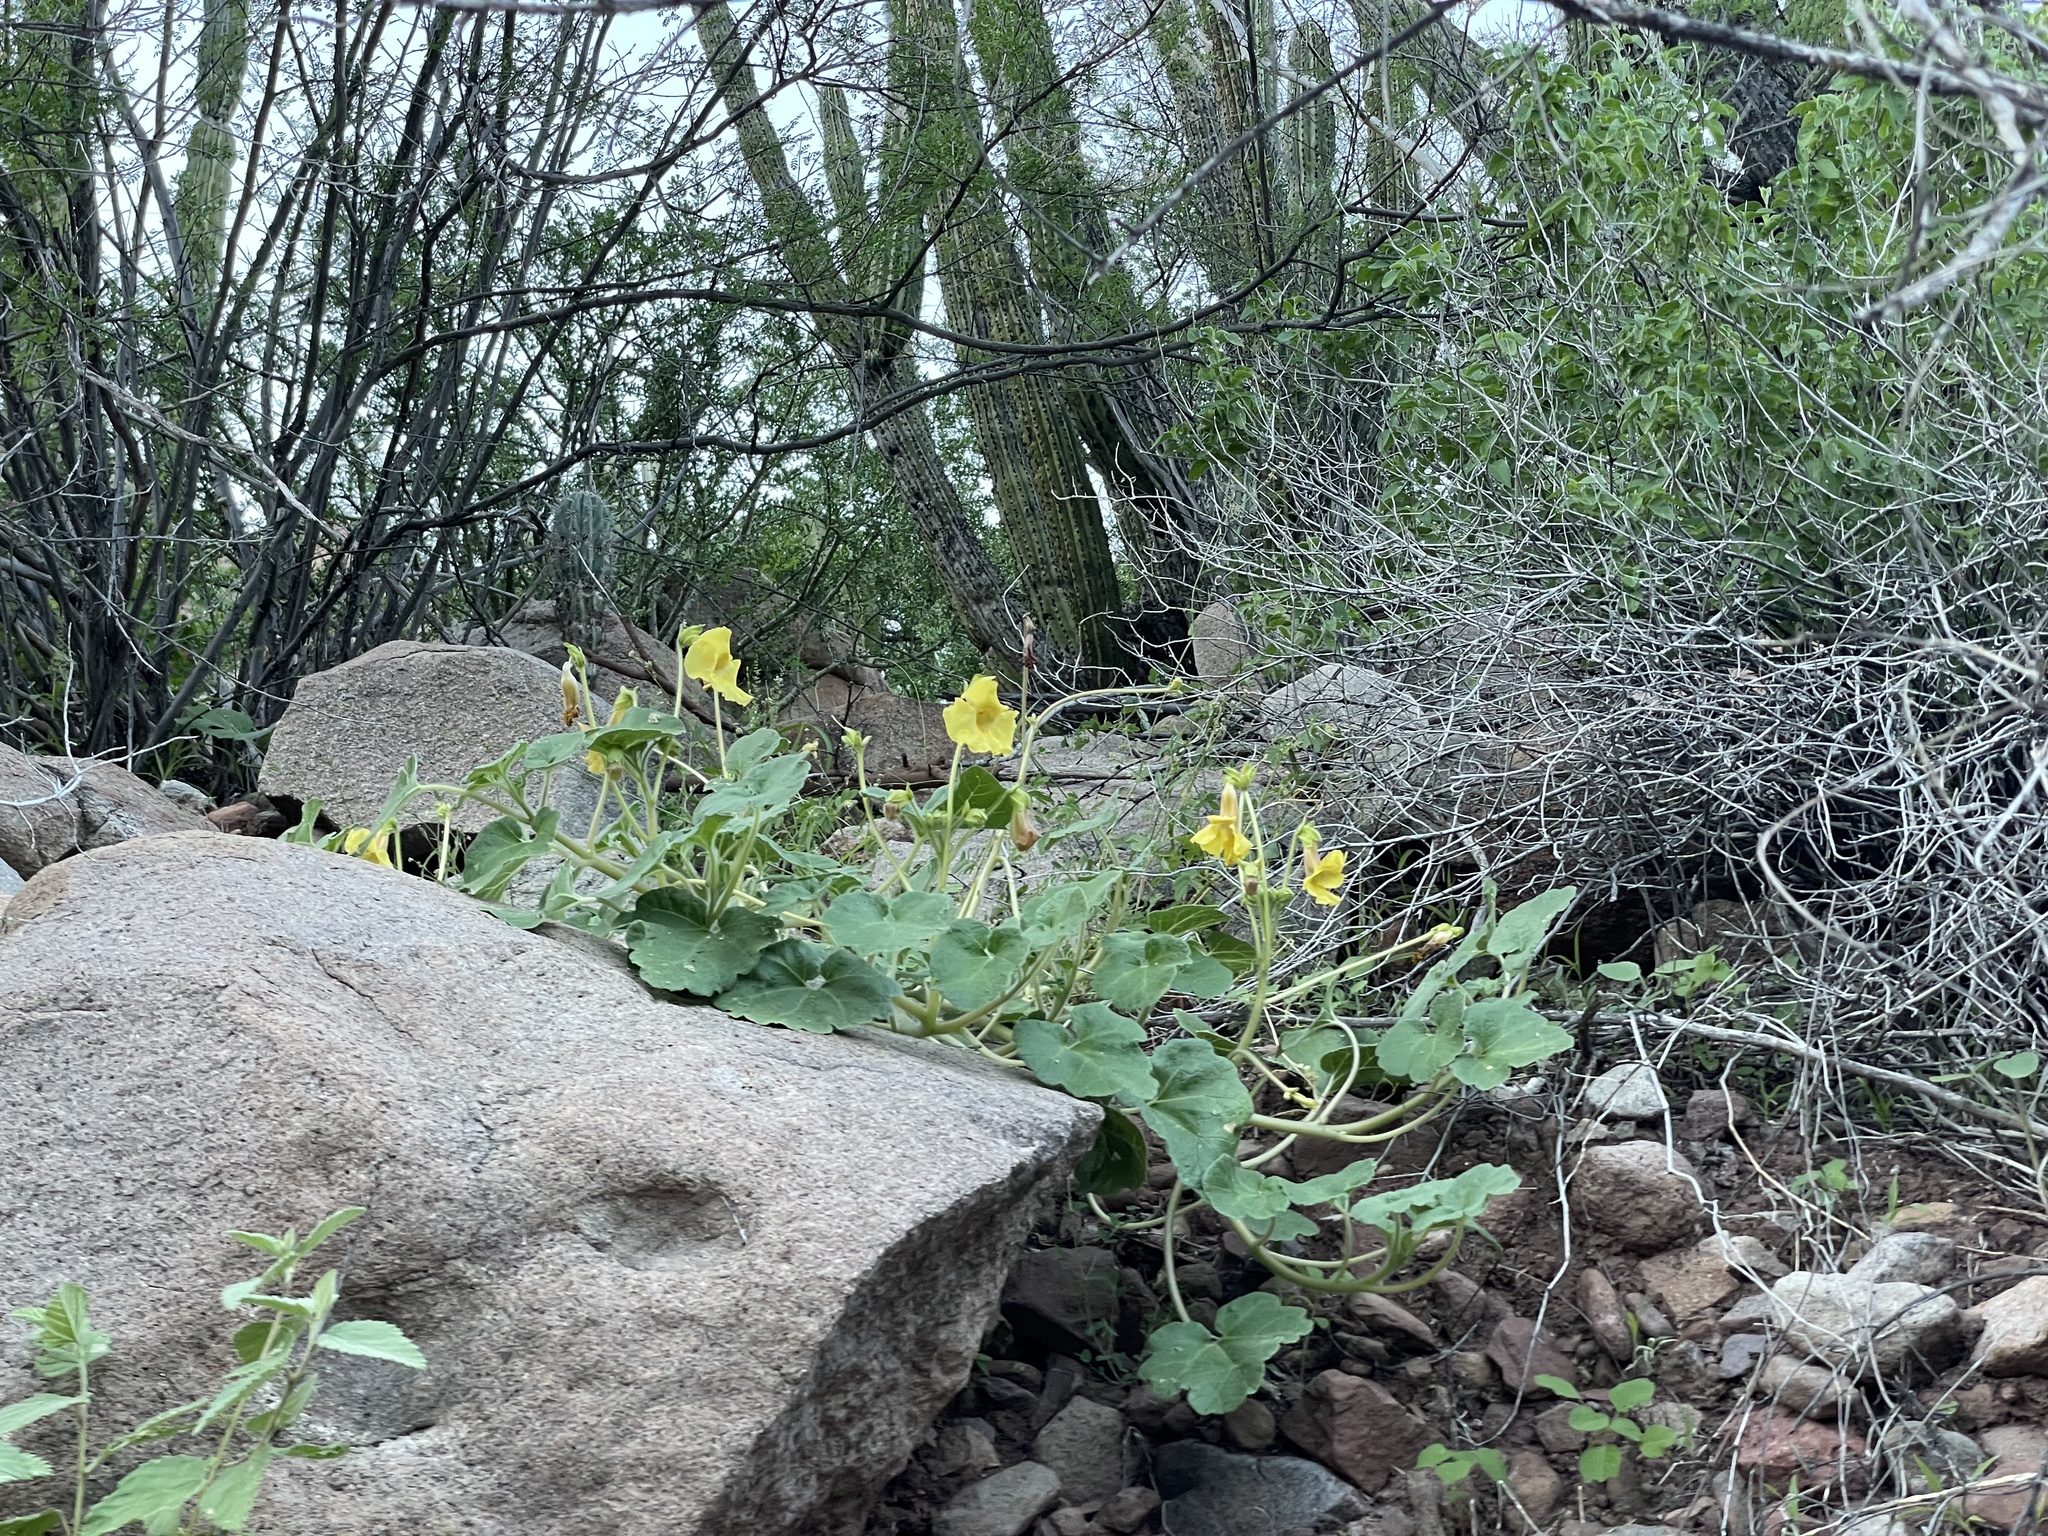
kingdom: Plantae
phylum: Tracheophyta
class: Magnoliopsida
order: Lamiales
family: Martyniaceae
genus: Proboscidea
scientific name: Proboscidea althaeifolia
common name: Desert unicorn-plant
